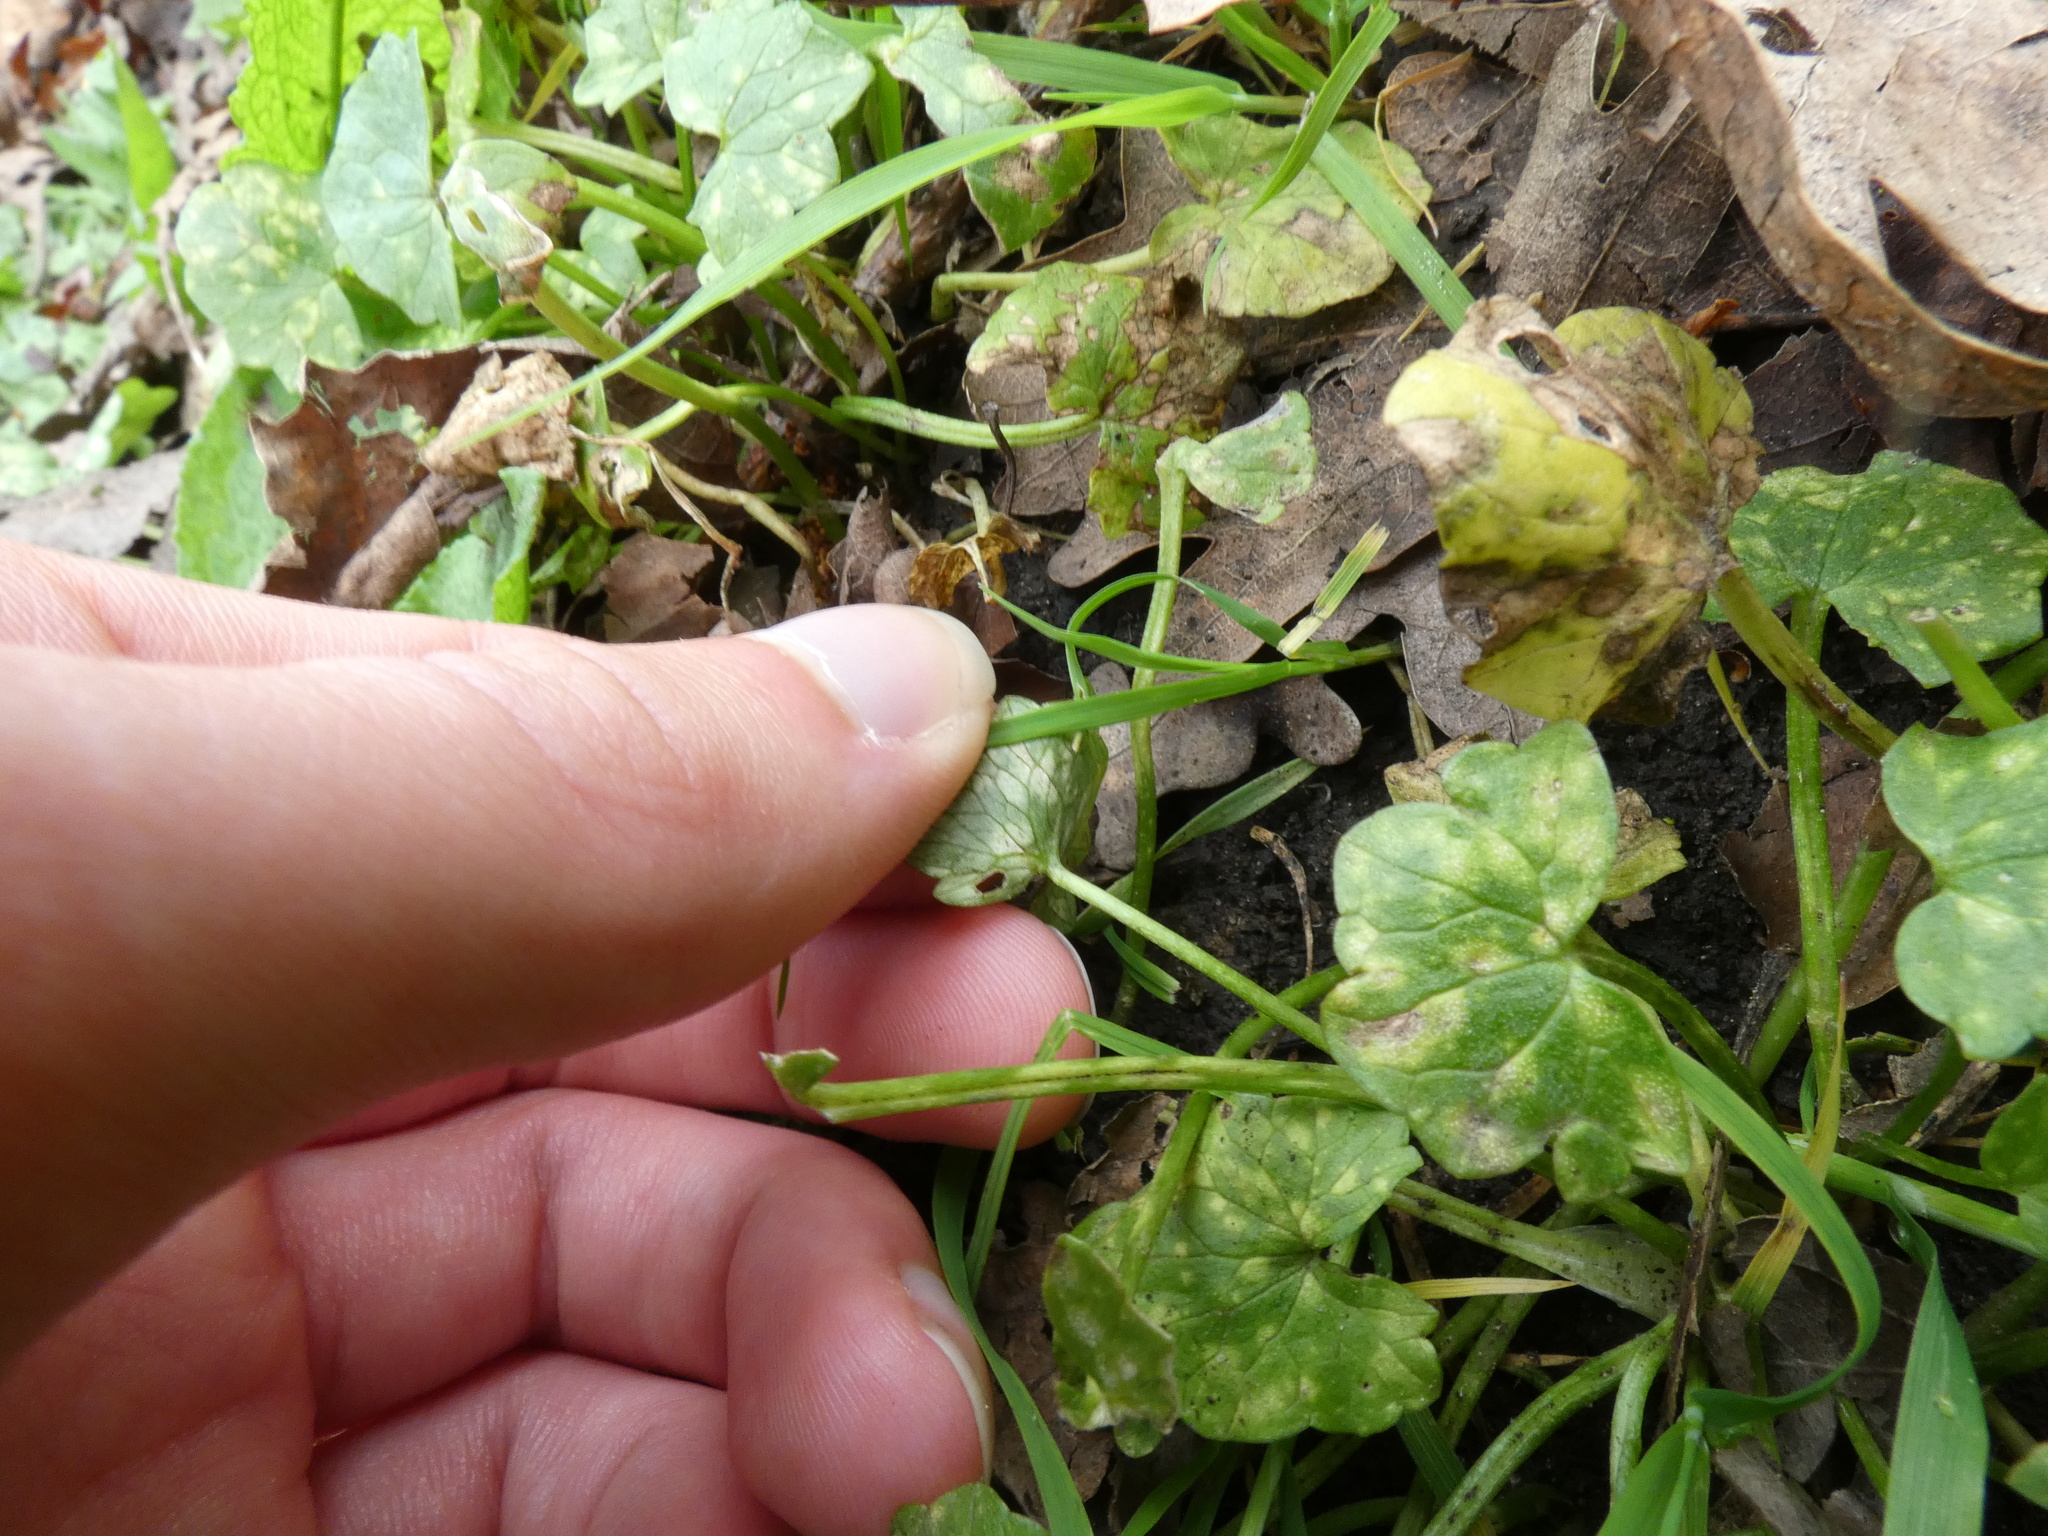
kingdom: Fungi
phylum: Basidiomycota
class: Exobasidiomycetes
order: Entylomatales
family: Entylomataceae
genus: Entyloma
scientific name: Entyloma ficariae
